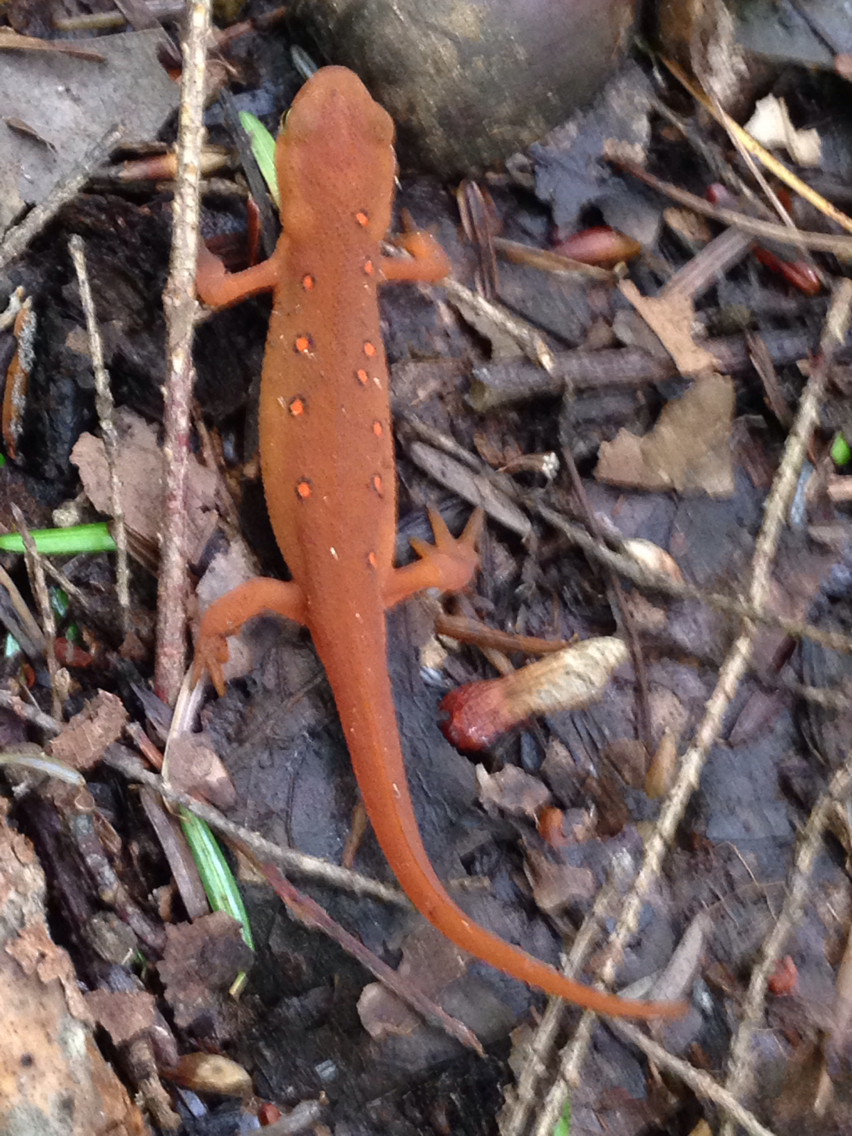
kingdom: Animalia
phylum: Chordata
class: Amphibia
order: Caudata
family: Salamandridae
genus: Notophthalmus
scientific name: Notophthalmus viridescens
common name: Eastern newt
